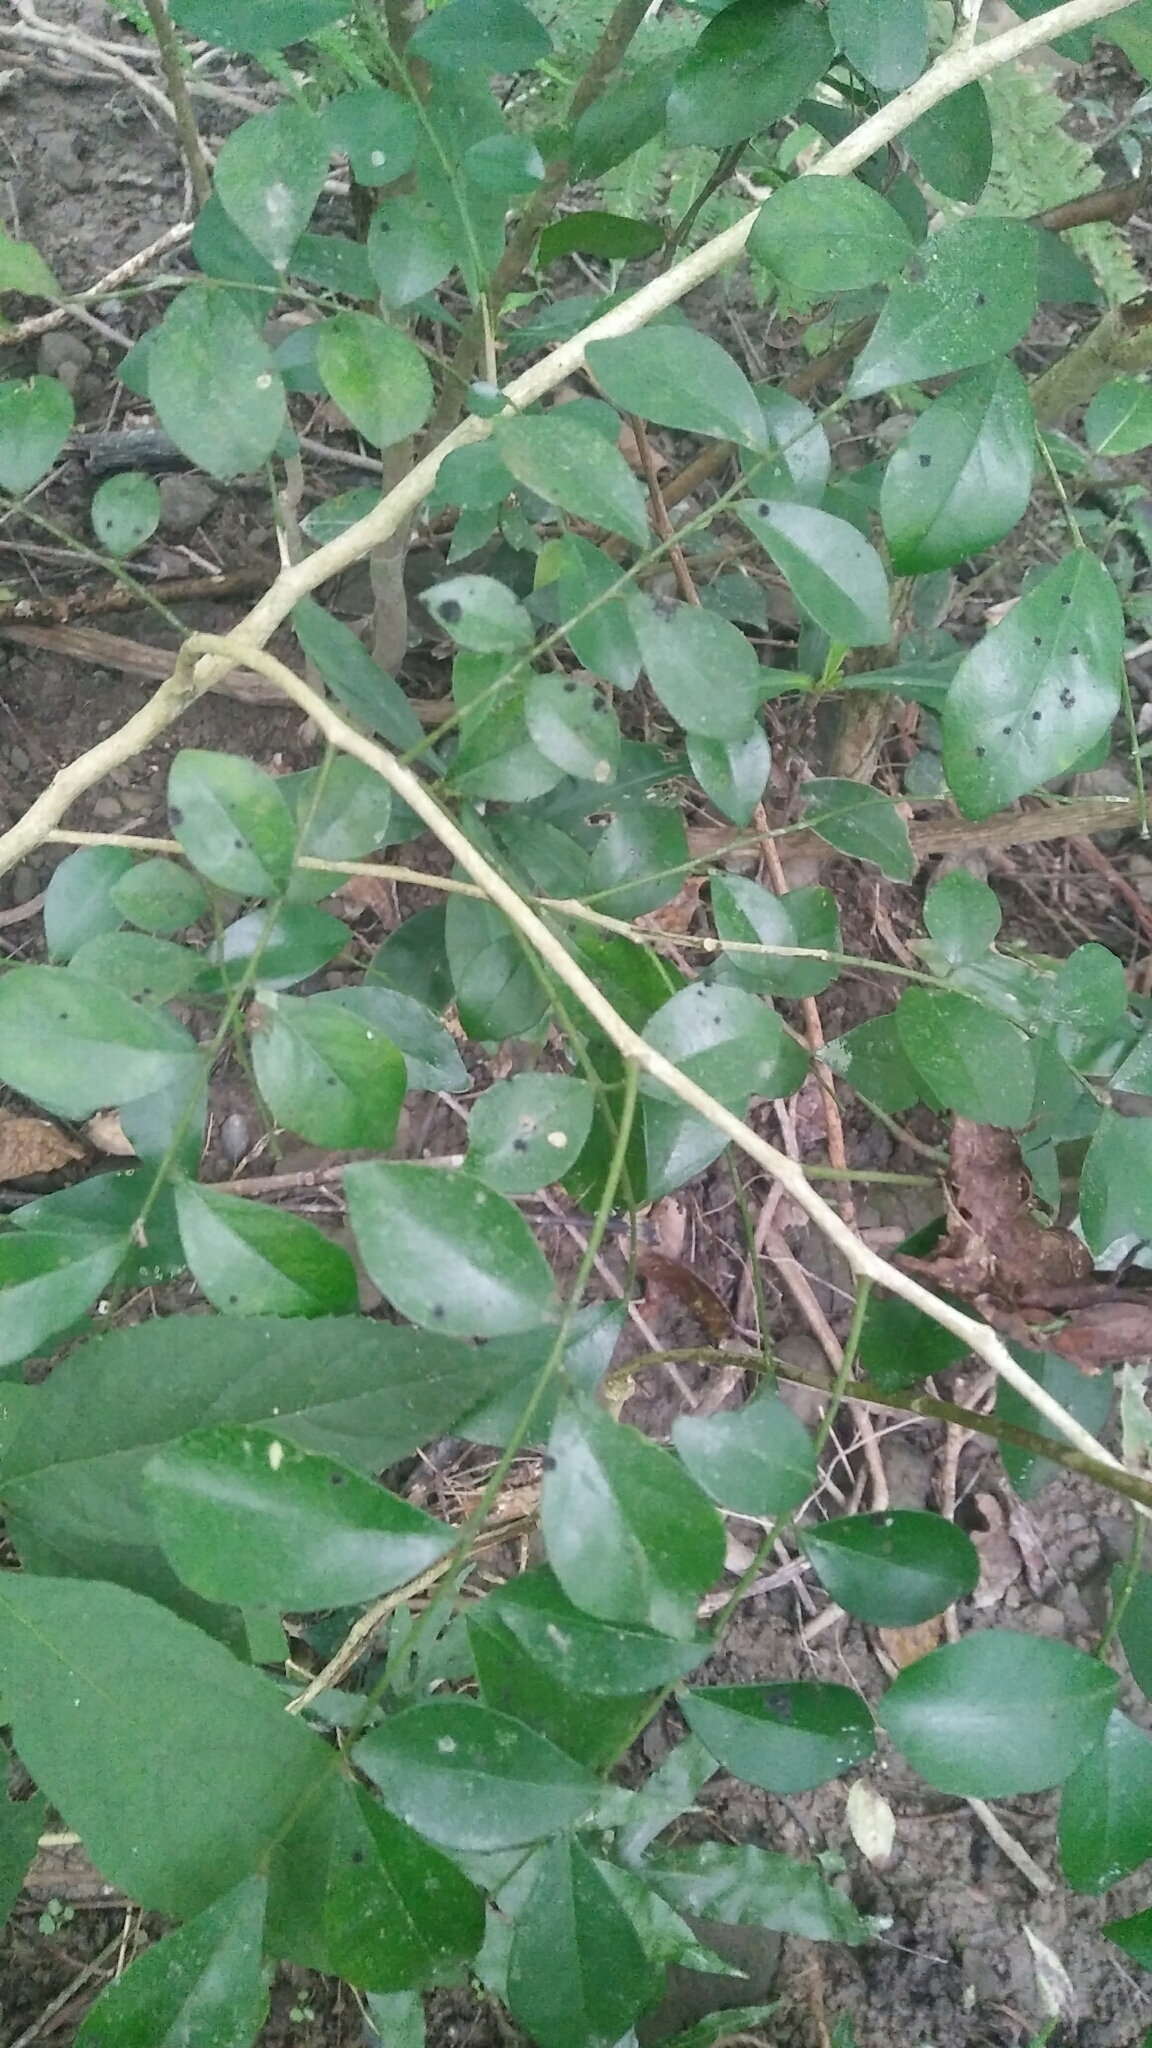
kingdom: Plantae
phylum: Tracheophyta
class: Magnoliopsida
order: Sapindales
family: Rutaceae
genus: Murraya
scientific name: Murraya paniculata
